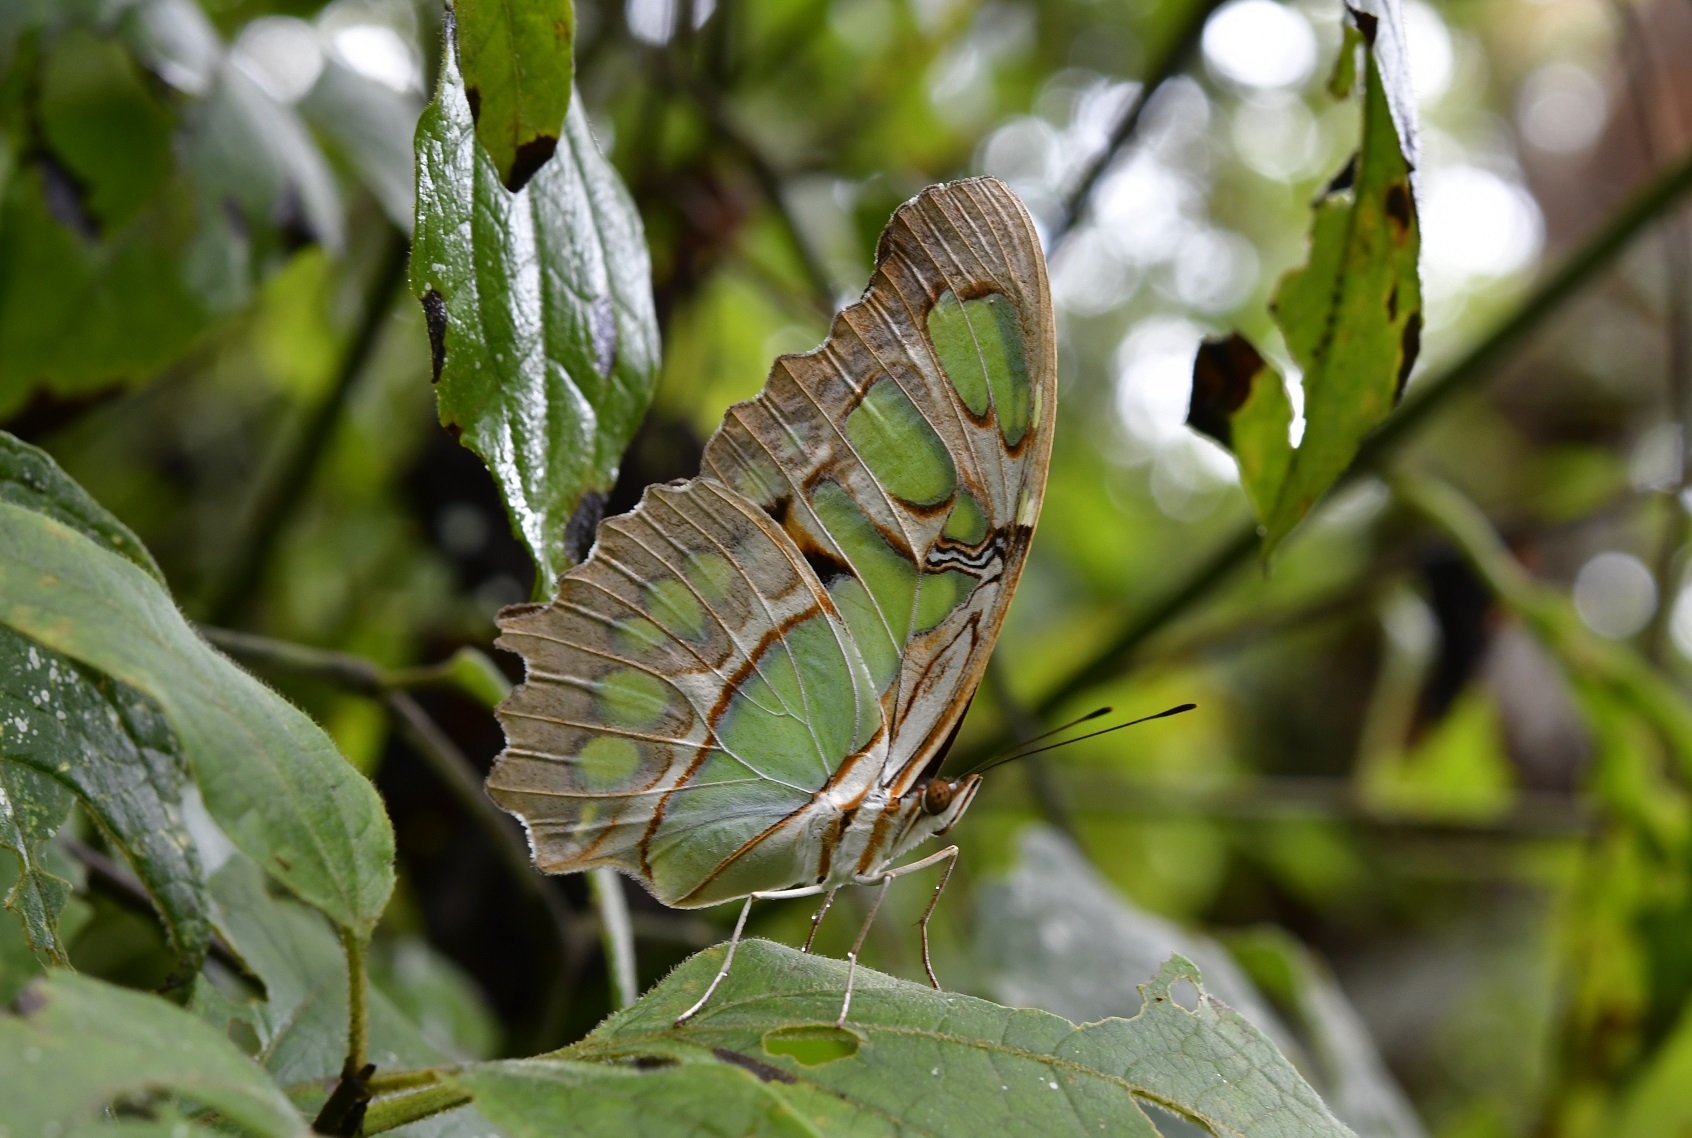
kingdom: Animalia
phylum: Arthropoda
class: Insecta
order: Lepidoptera
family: Nymphalidae
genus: Siproeta
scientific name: Siproeta stelenes
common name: Malachite
